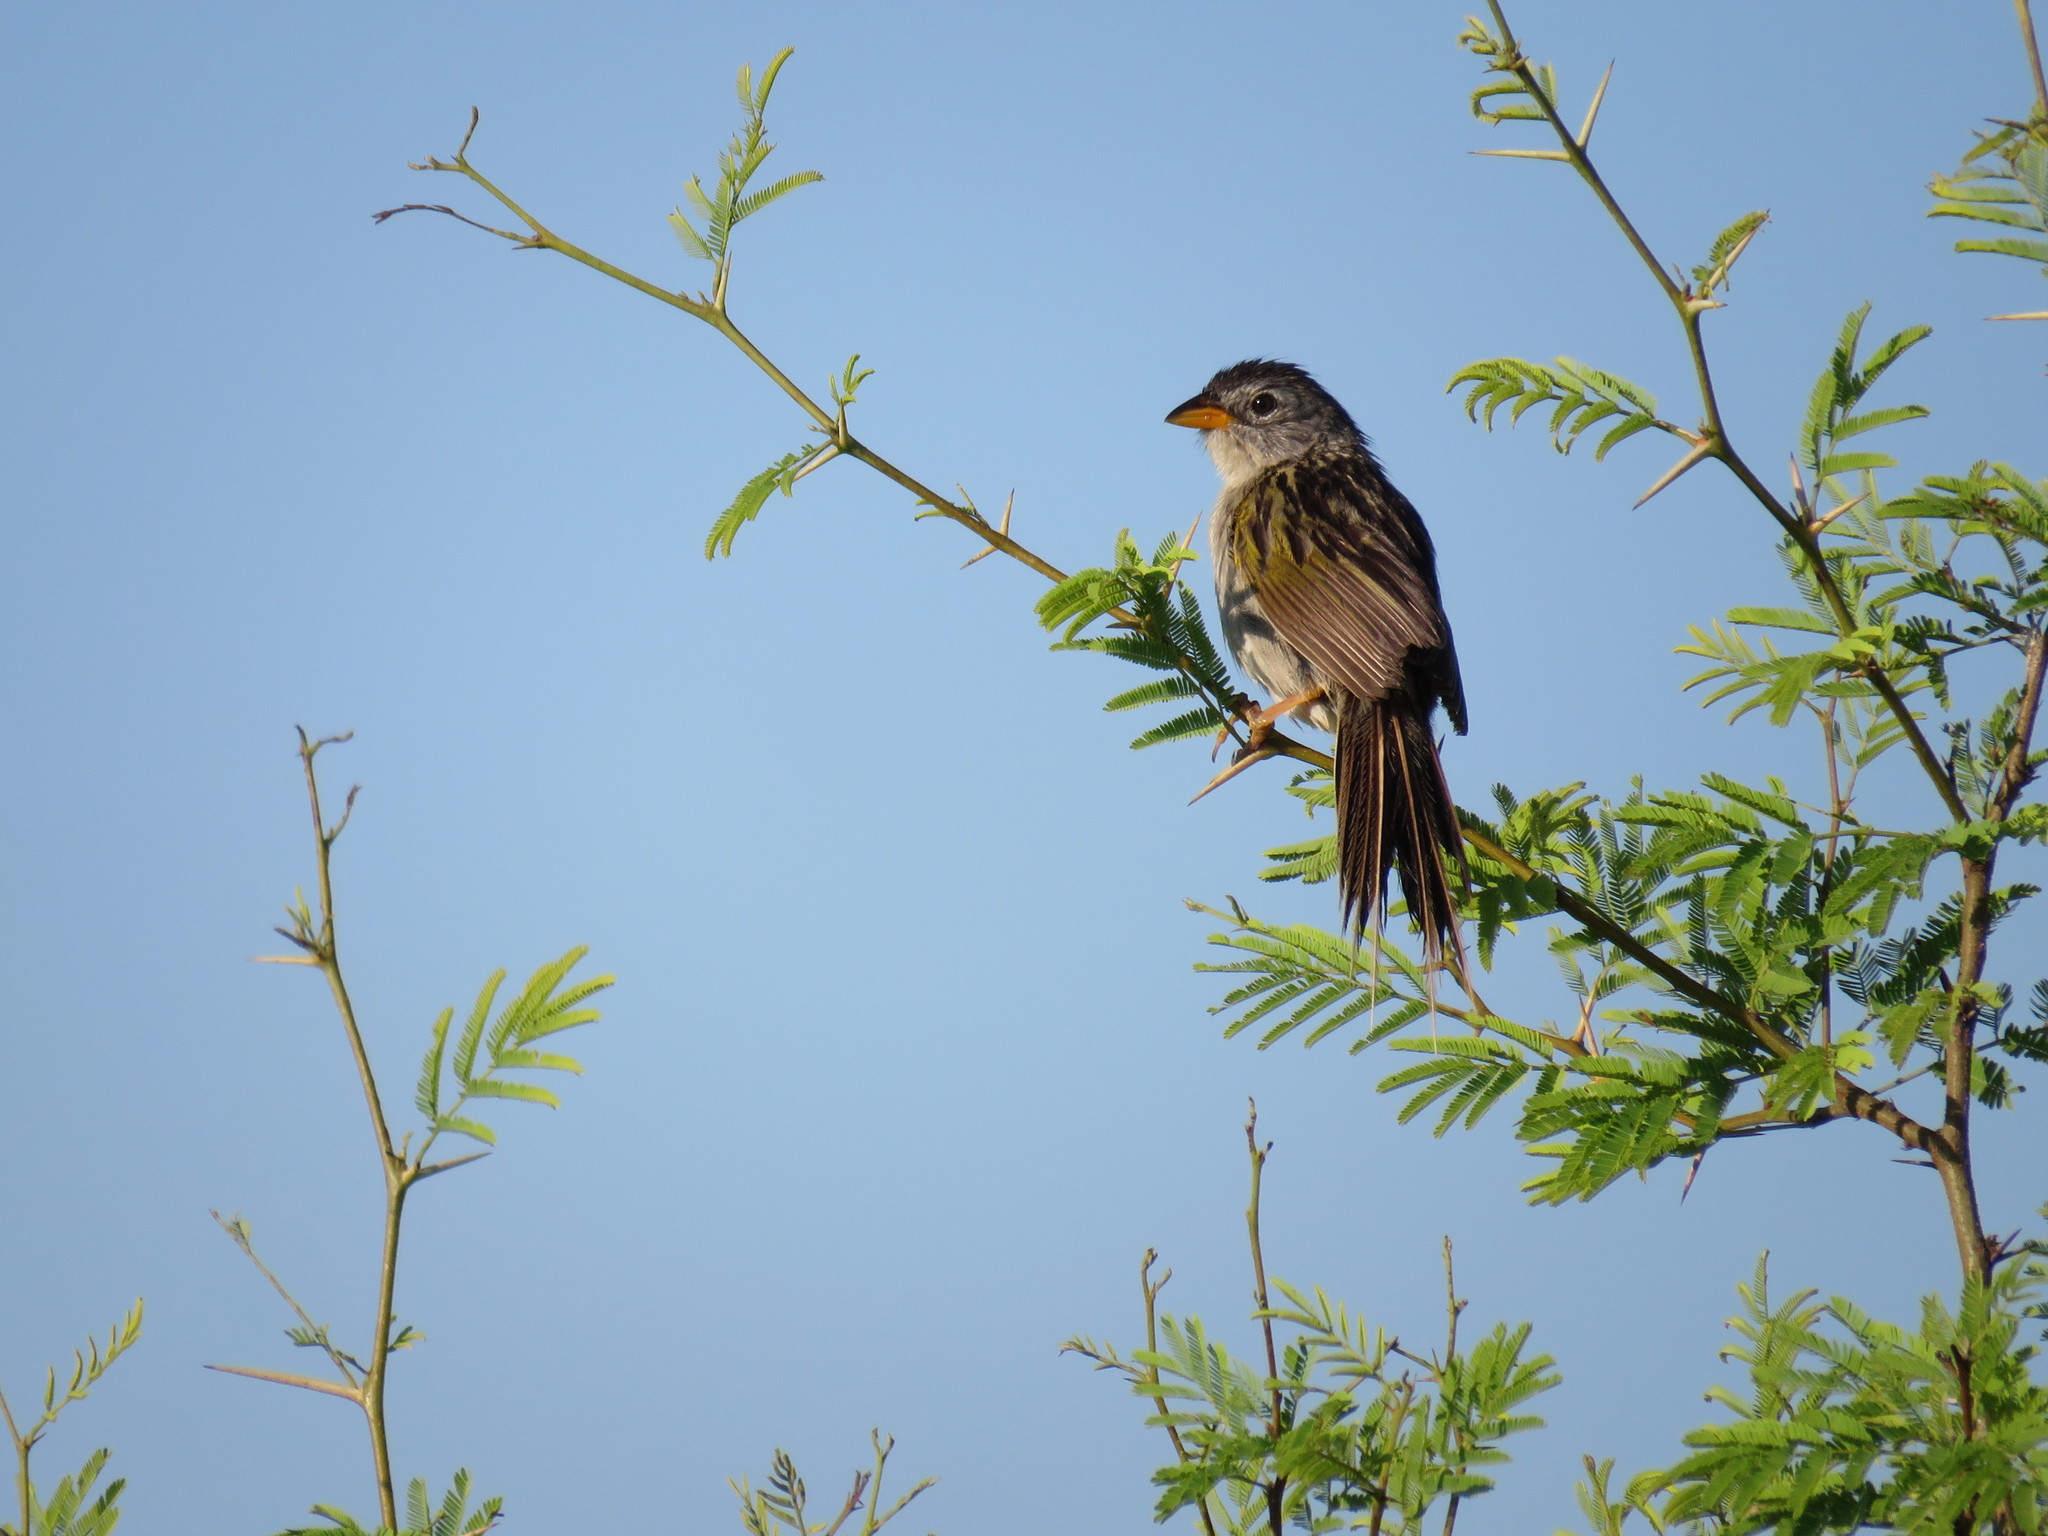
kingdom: Animalia
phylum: Chordata
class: Aves
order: Passeriformes
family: Thraupidae
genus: Emberizoides
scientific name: Emberizoides ypiranganus
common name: Lesser grass finch
